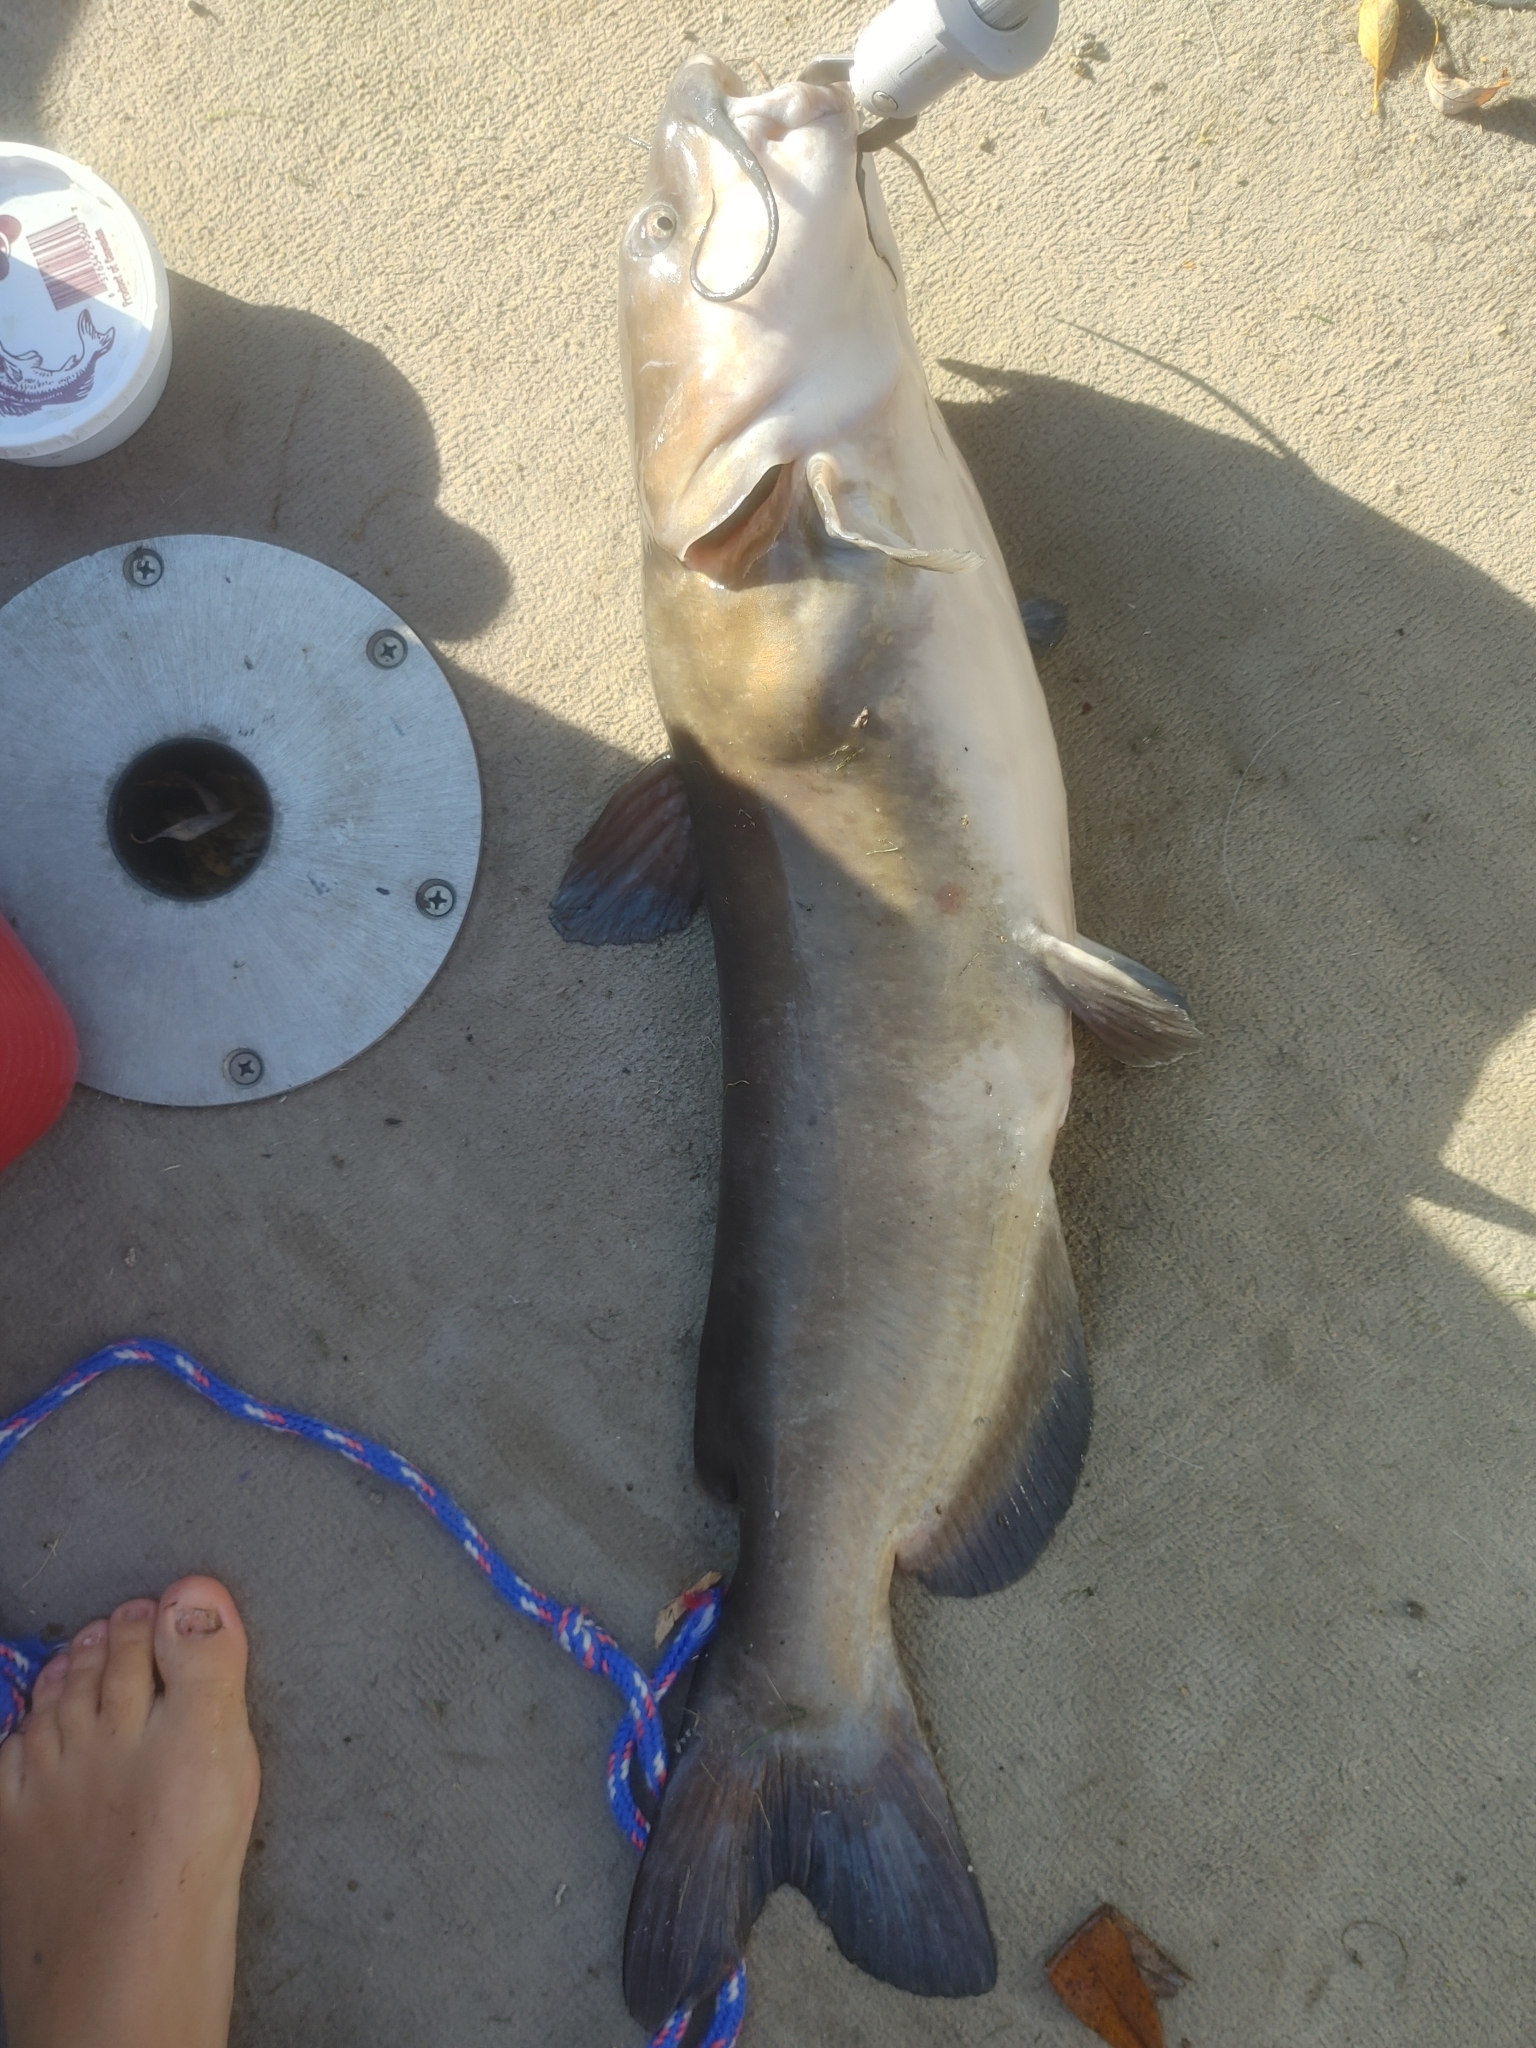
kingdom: Animalia
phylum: Chordata
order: Siluriformes
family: Ictaluridae
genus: Ictalurus
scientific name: Ictalurus punctatus
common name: Channel catfish
